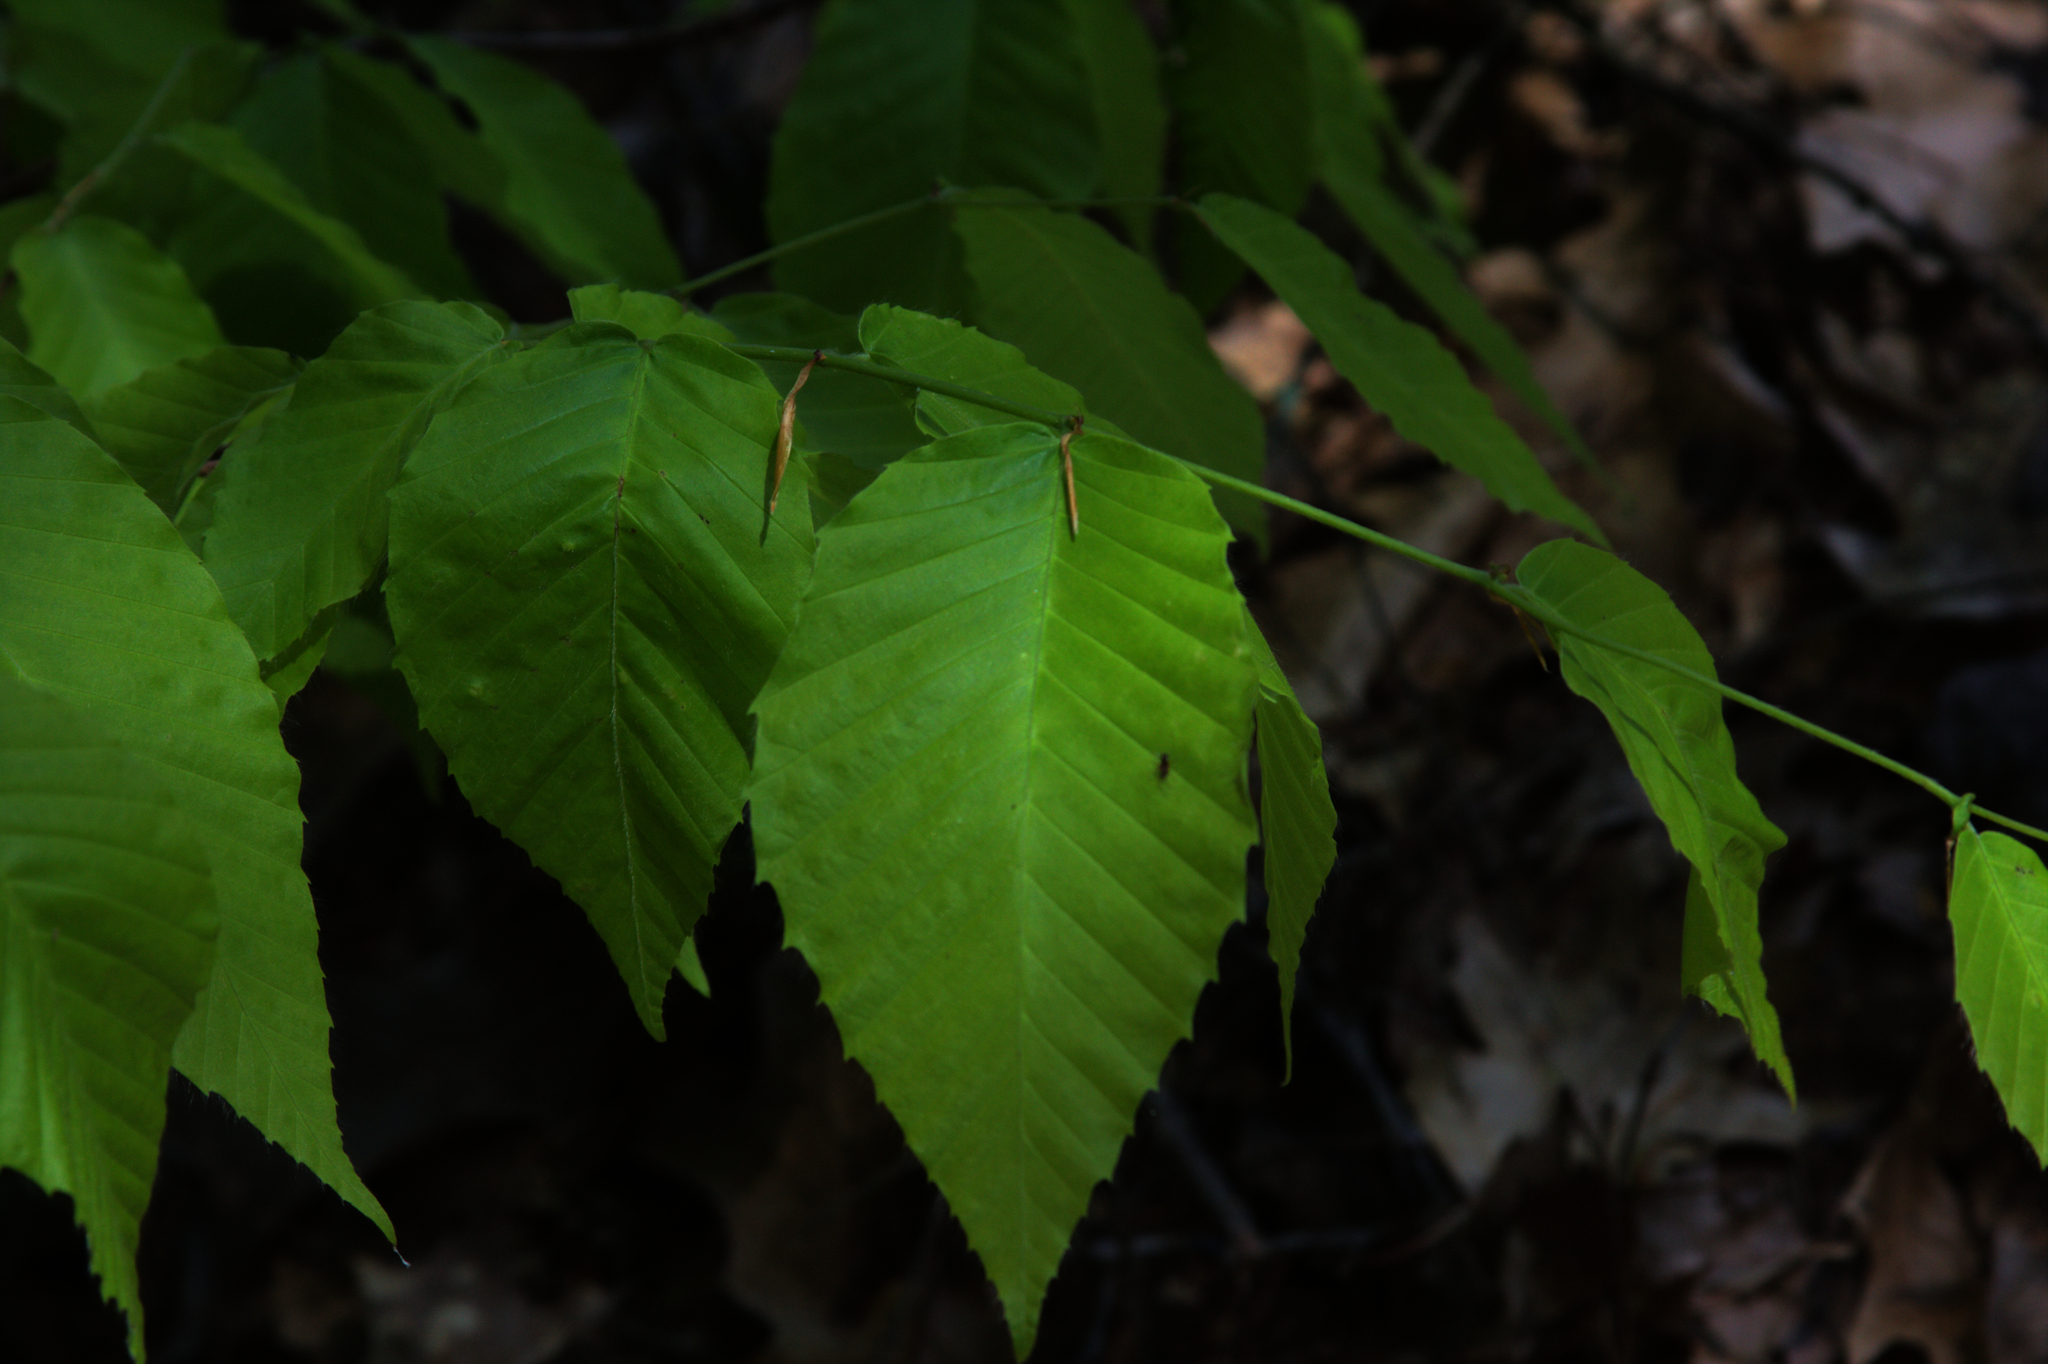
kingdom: Plantae
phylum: Tracheophyta
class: Magnoliopsida
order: Fagales
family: Fagaceae
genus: Fagus
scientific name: Fagus grandifolia
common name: American beech
